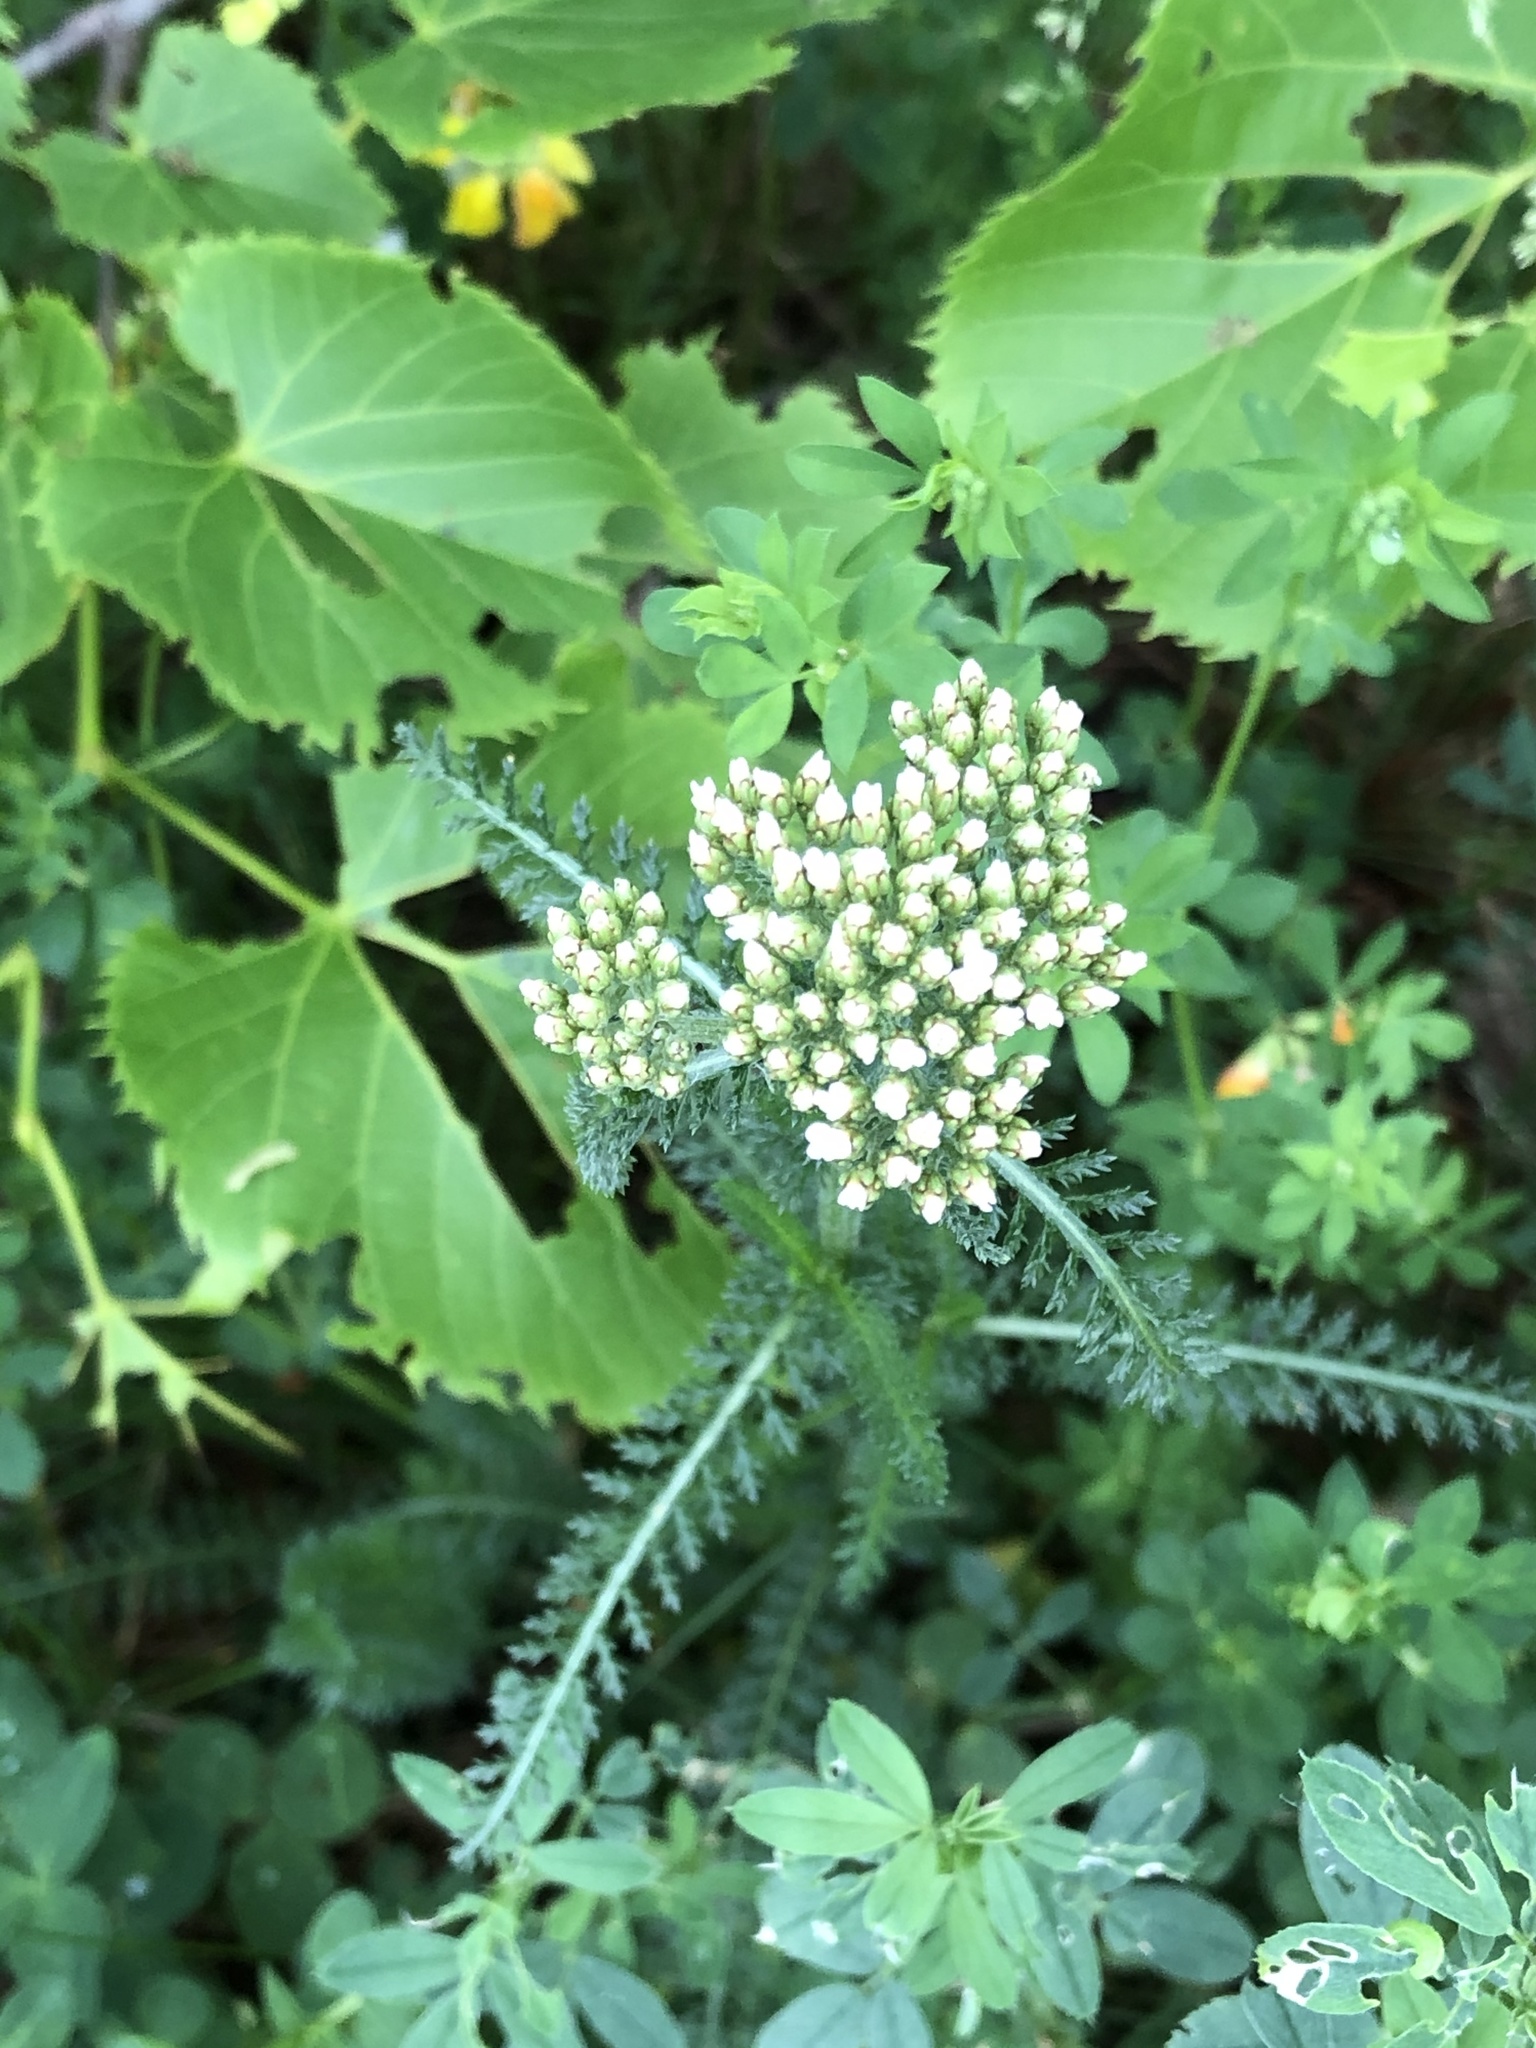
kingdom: Plantae
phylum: Tracheophyta
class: Magnoliopsida
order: Asterales
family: Asteraceae
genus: Achillea
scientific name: Achillea millefolium
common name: Yarrow
